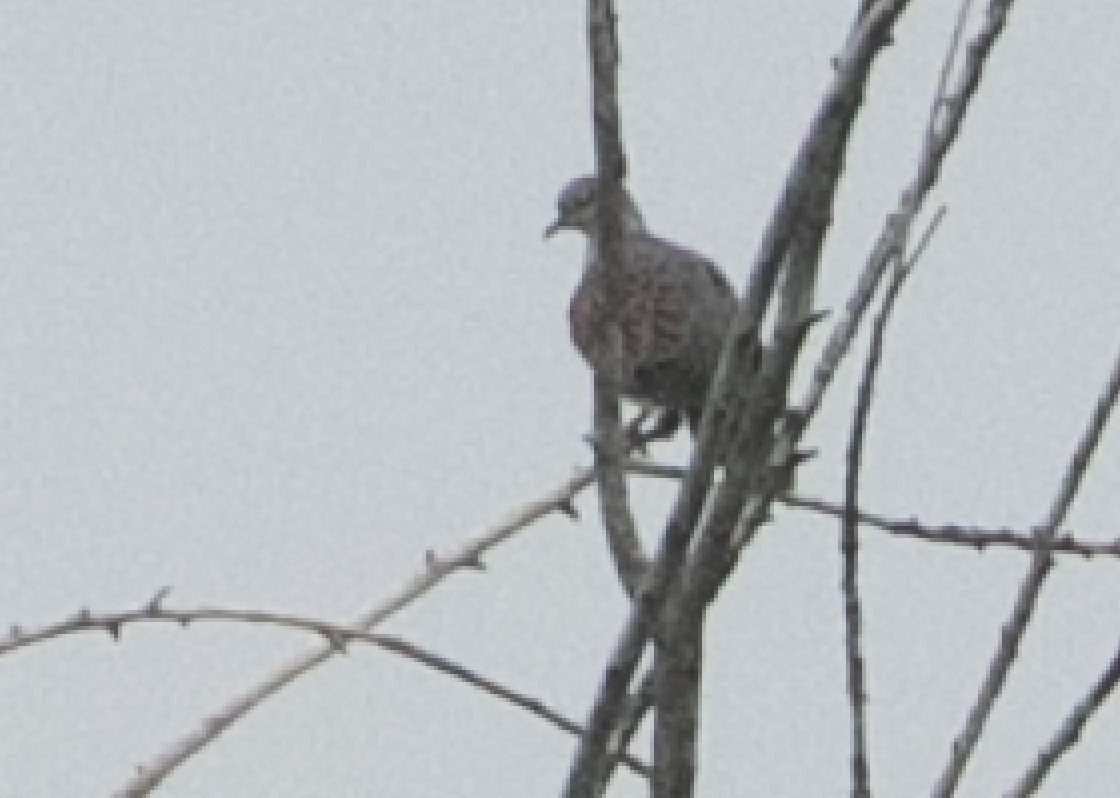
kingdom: Animalia
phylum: Chordata
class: Aves
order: Columbiformes
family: Columbidae
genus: Streptopelia
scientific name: Streptopelia turtur
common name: European turtle dove
